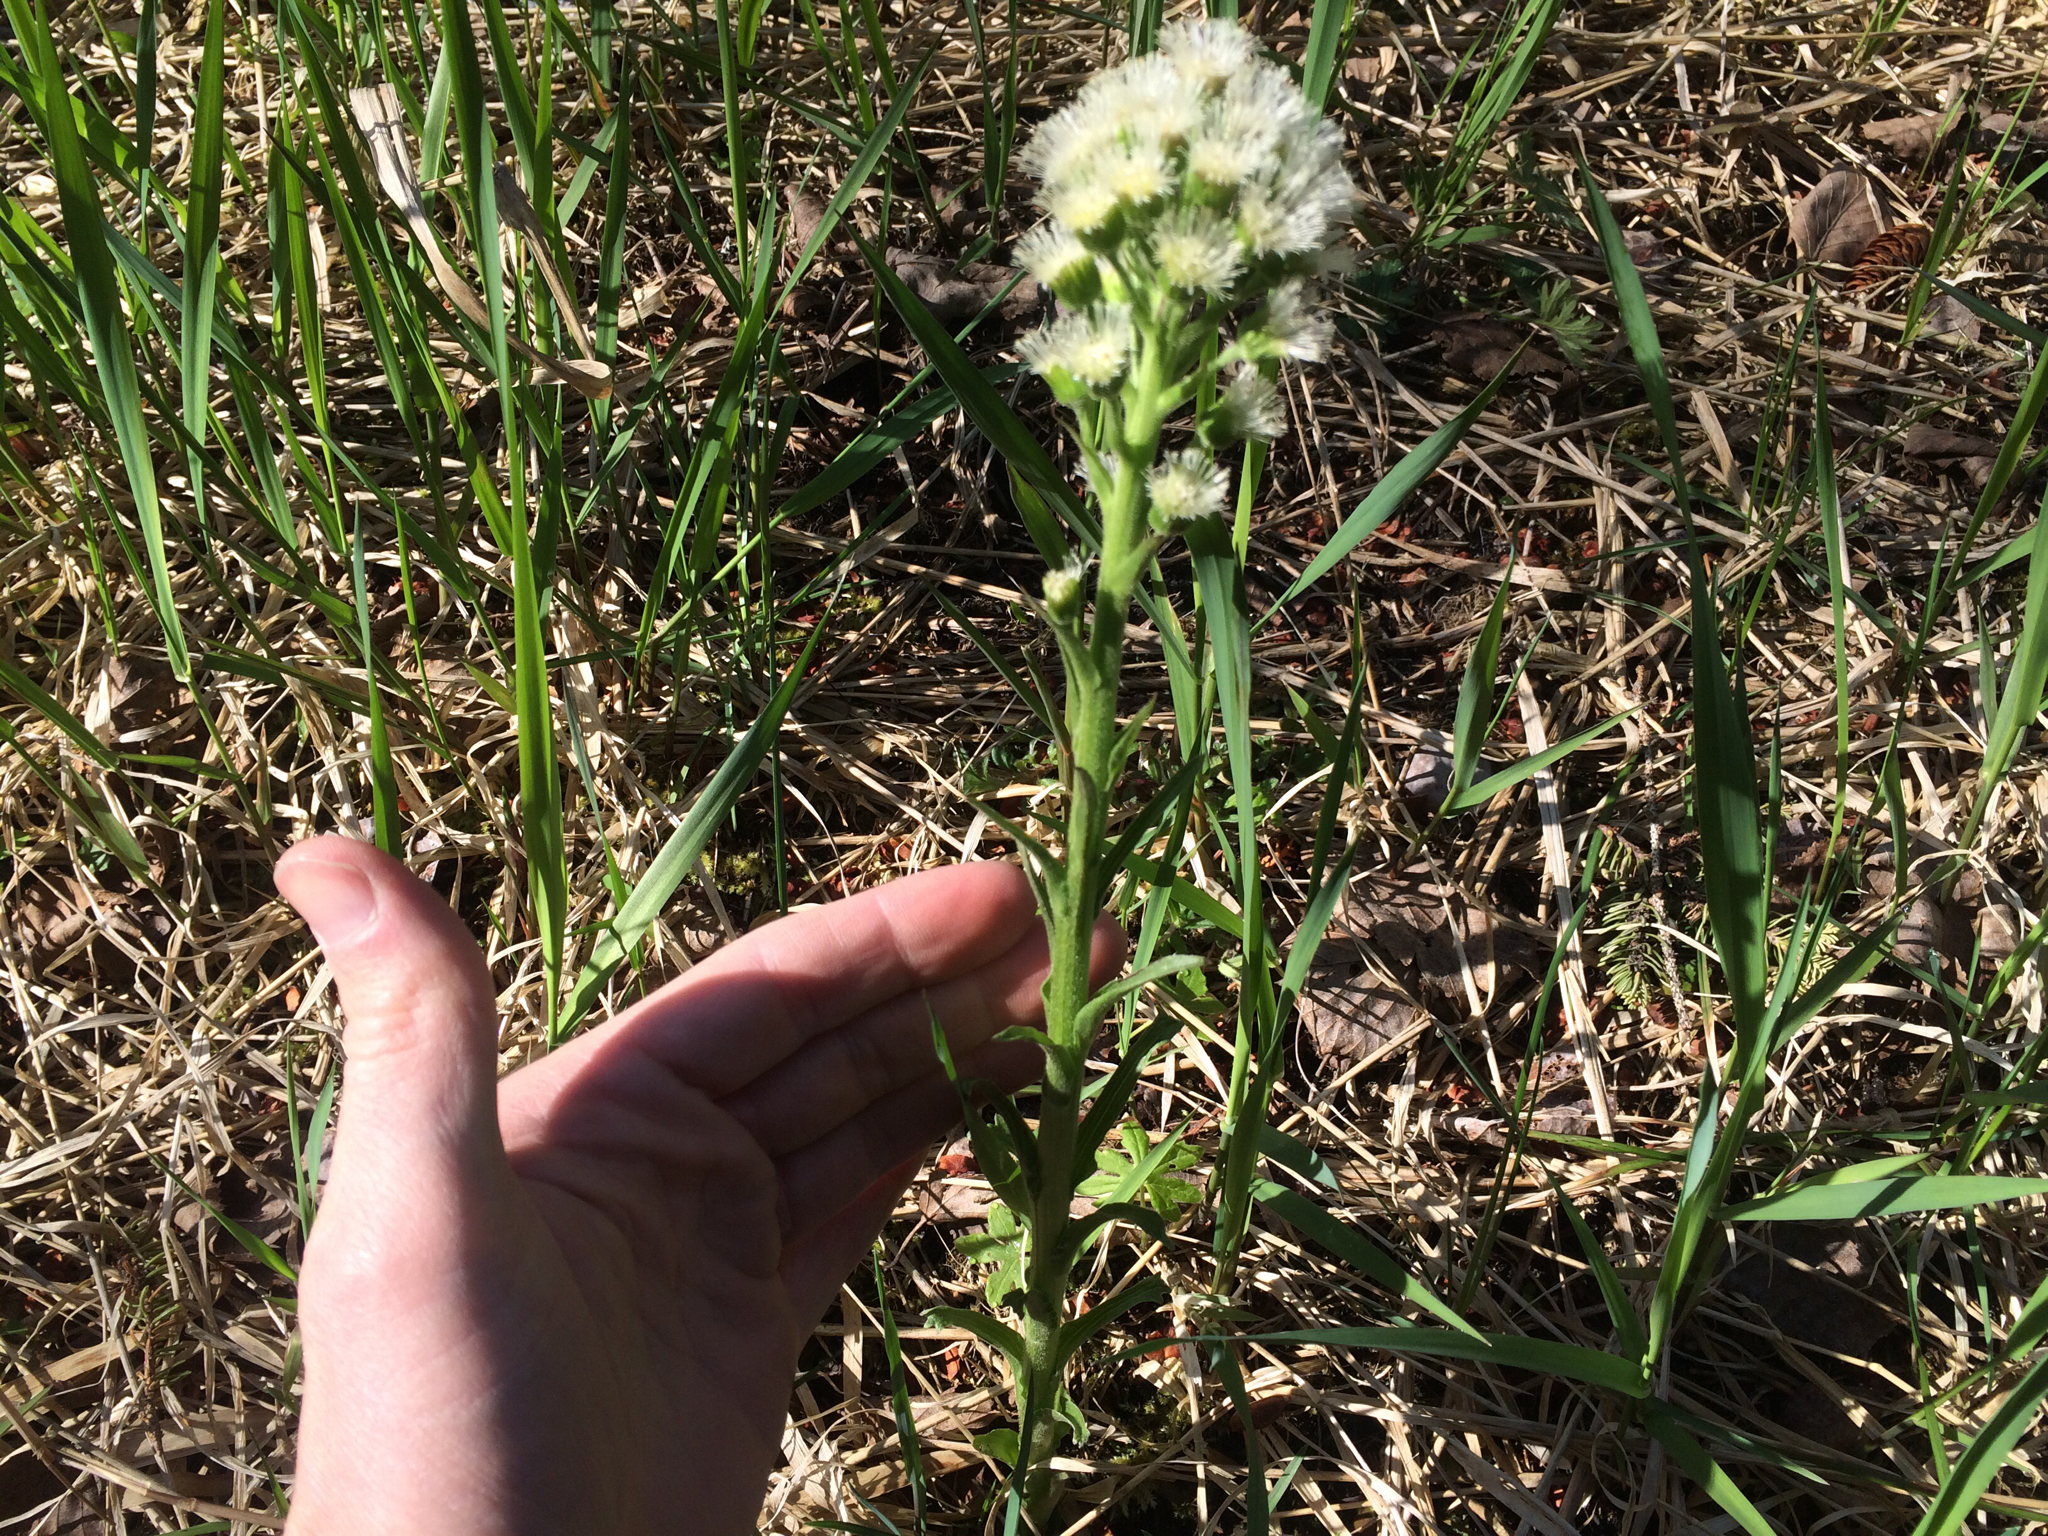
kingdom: Plantae
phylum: Tracheophyta
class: Magnoliopsida
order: Asterales
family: Asteraceae
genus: Petasites
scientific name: Petasites frigidus
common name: Arctic butterbur
